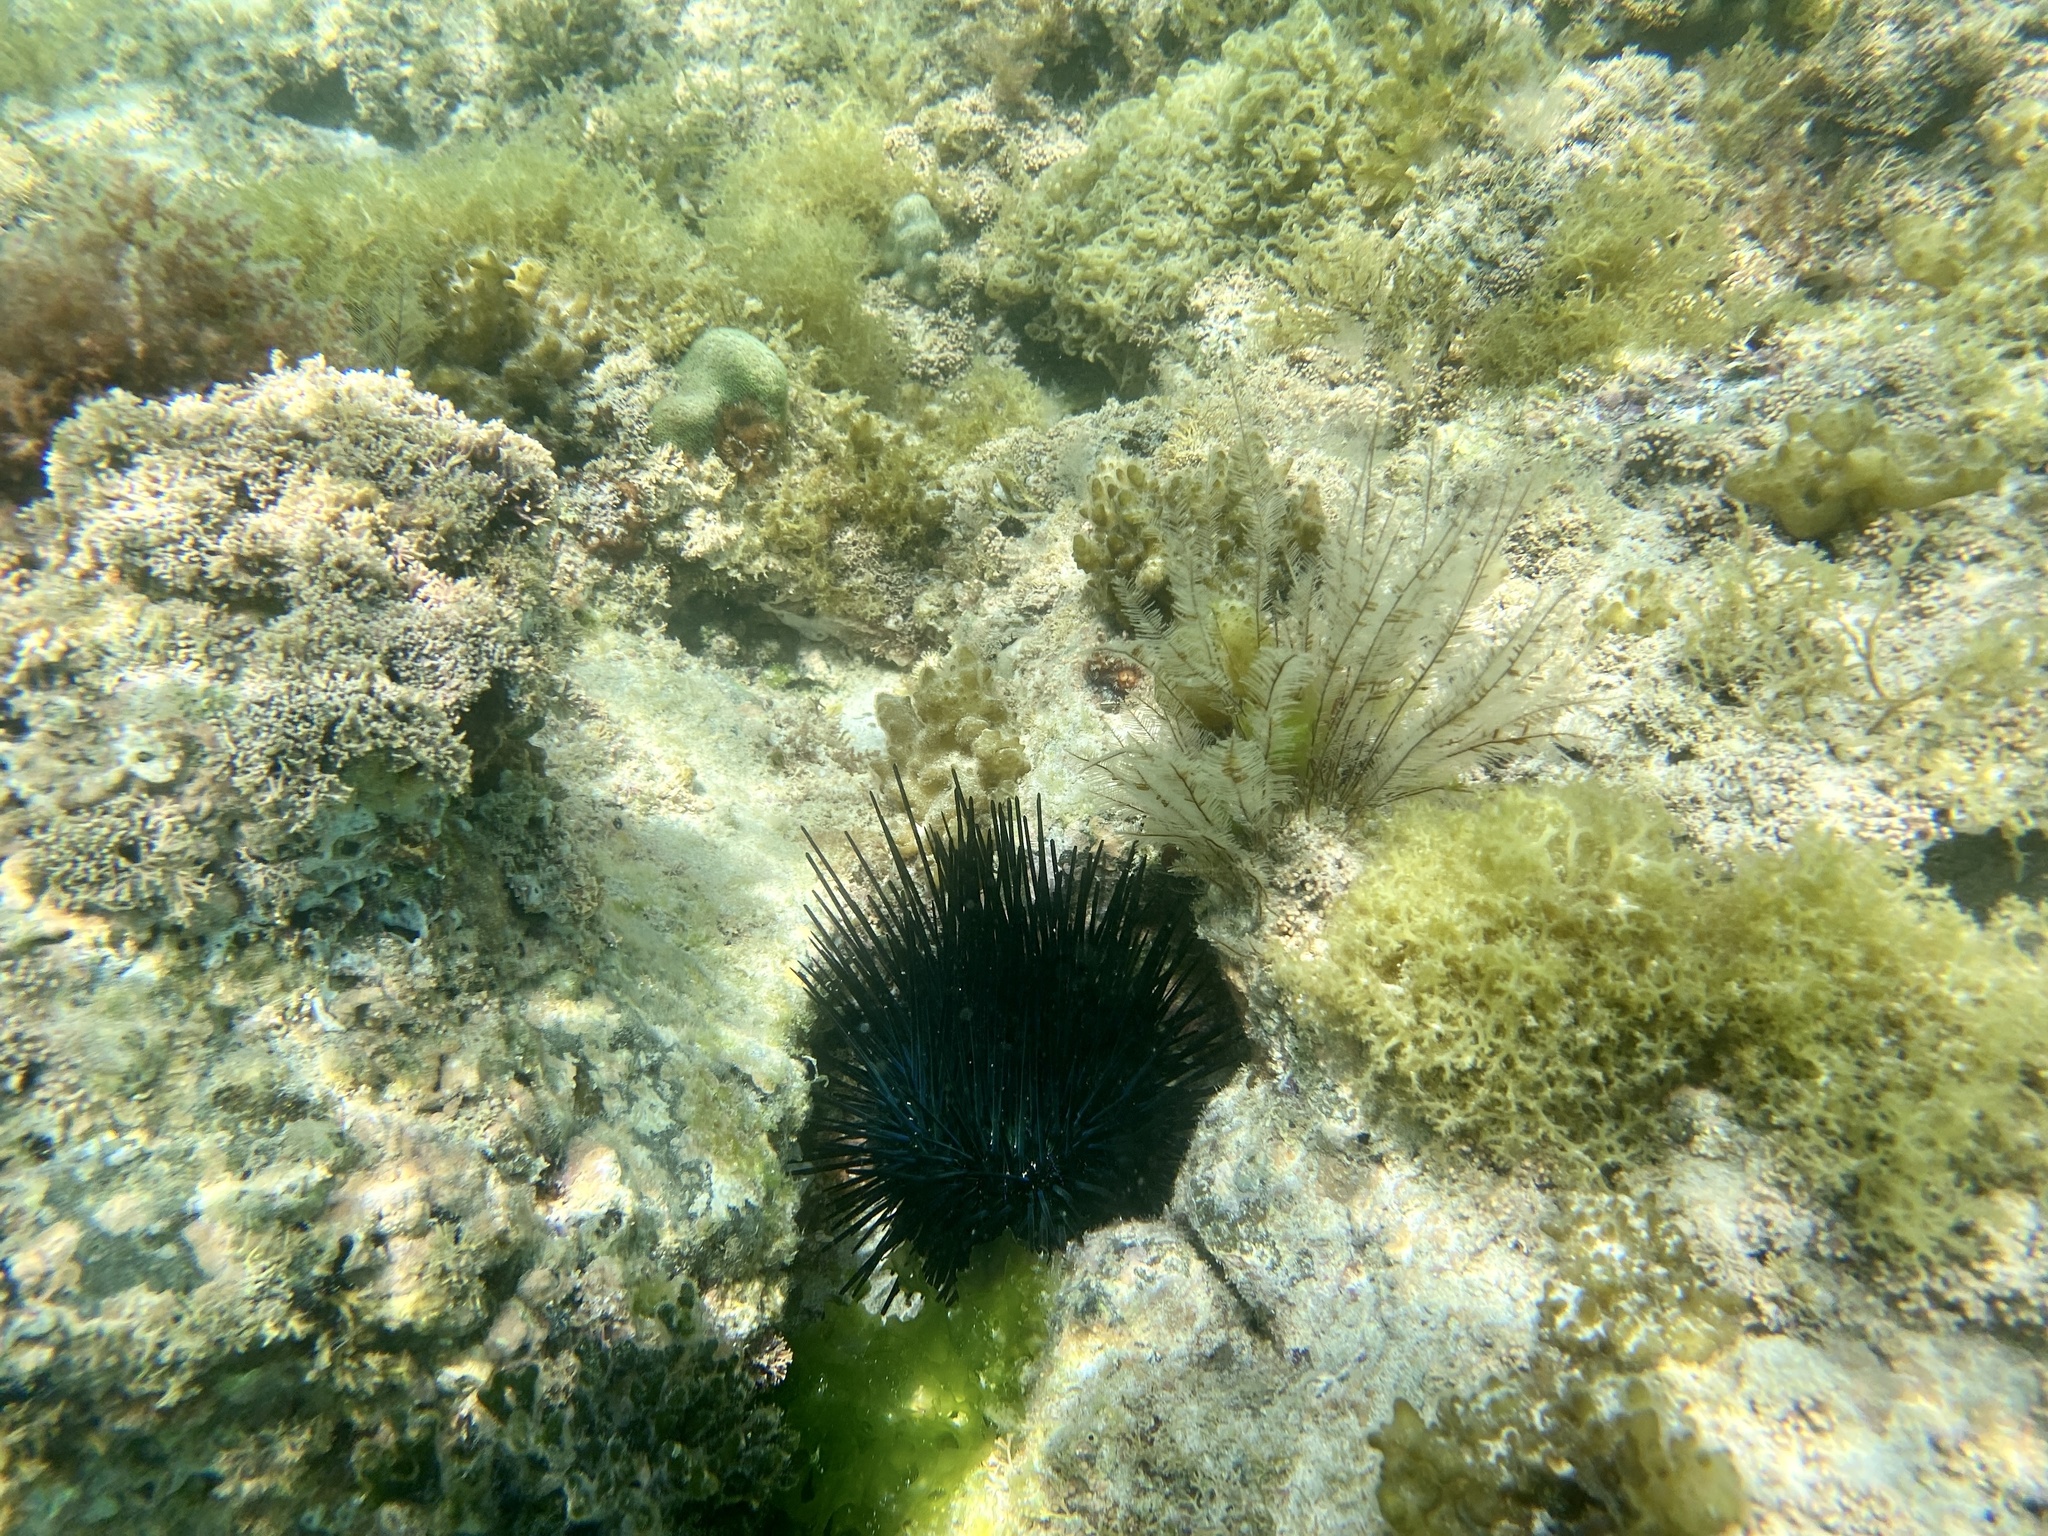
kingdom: Animalia
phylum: Echinodermata
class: Echinoidea
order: Camarodonta
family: Echinometridae
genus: Echinometra
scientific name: Echinometra vanbrunti
